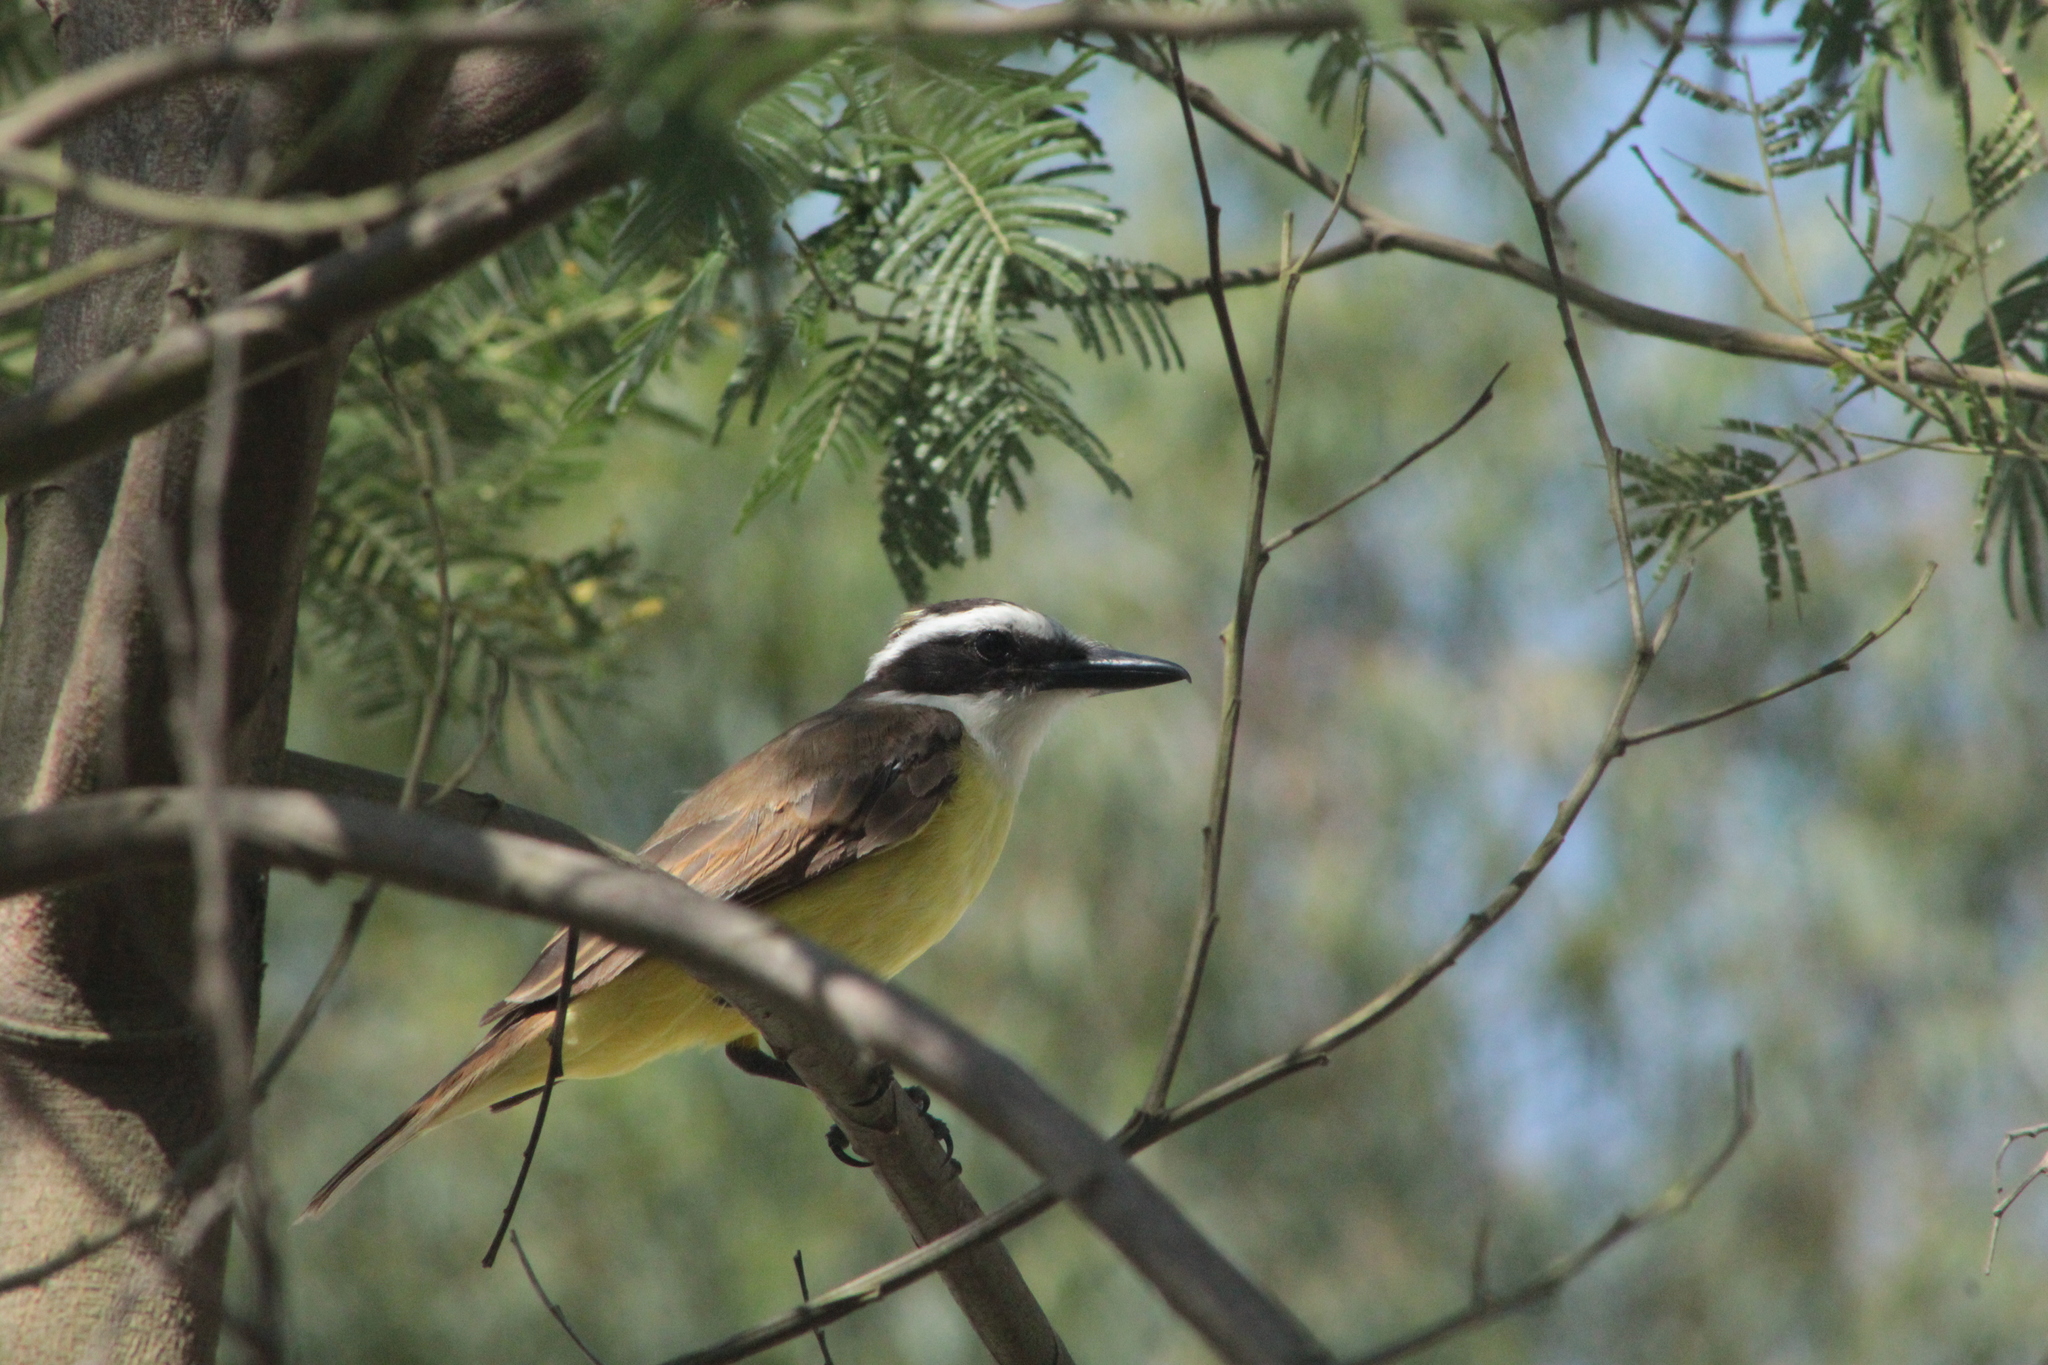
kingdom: Animalia
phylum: Chordata
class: Aves
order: Passeriformes
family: Tyrannidae
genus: Pitangus
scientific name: Pitangus sulphuratus
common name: Great kiskadee
